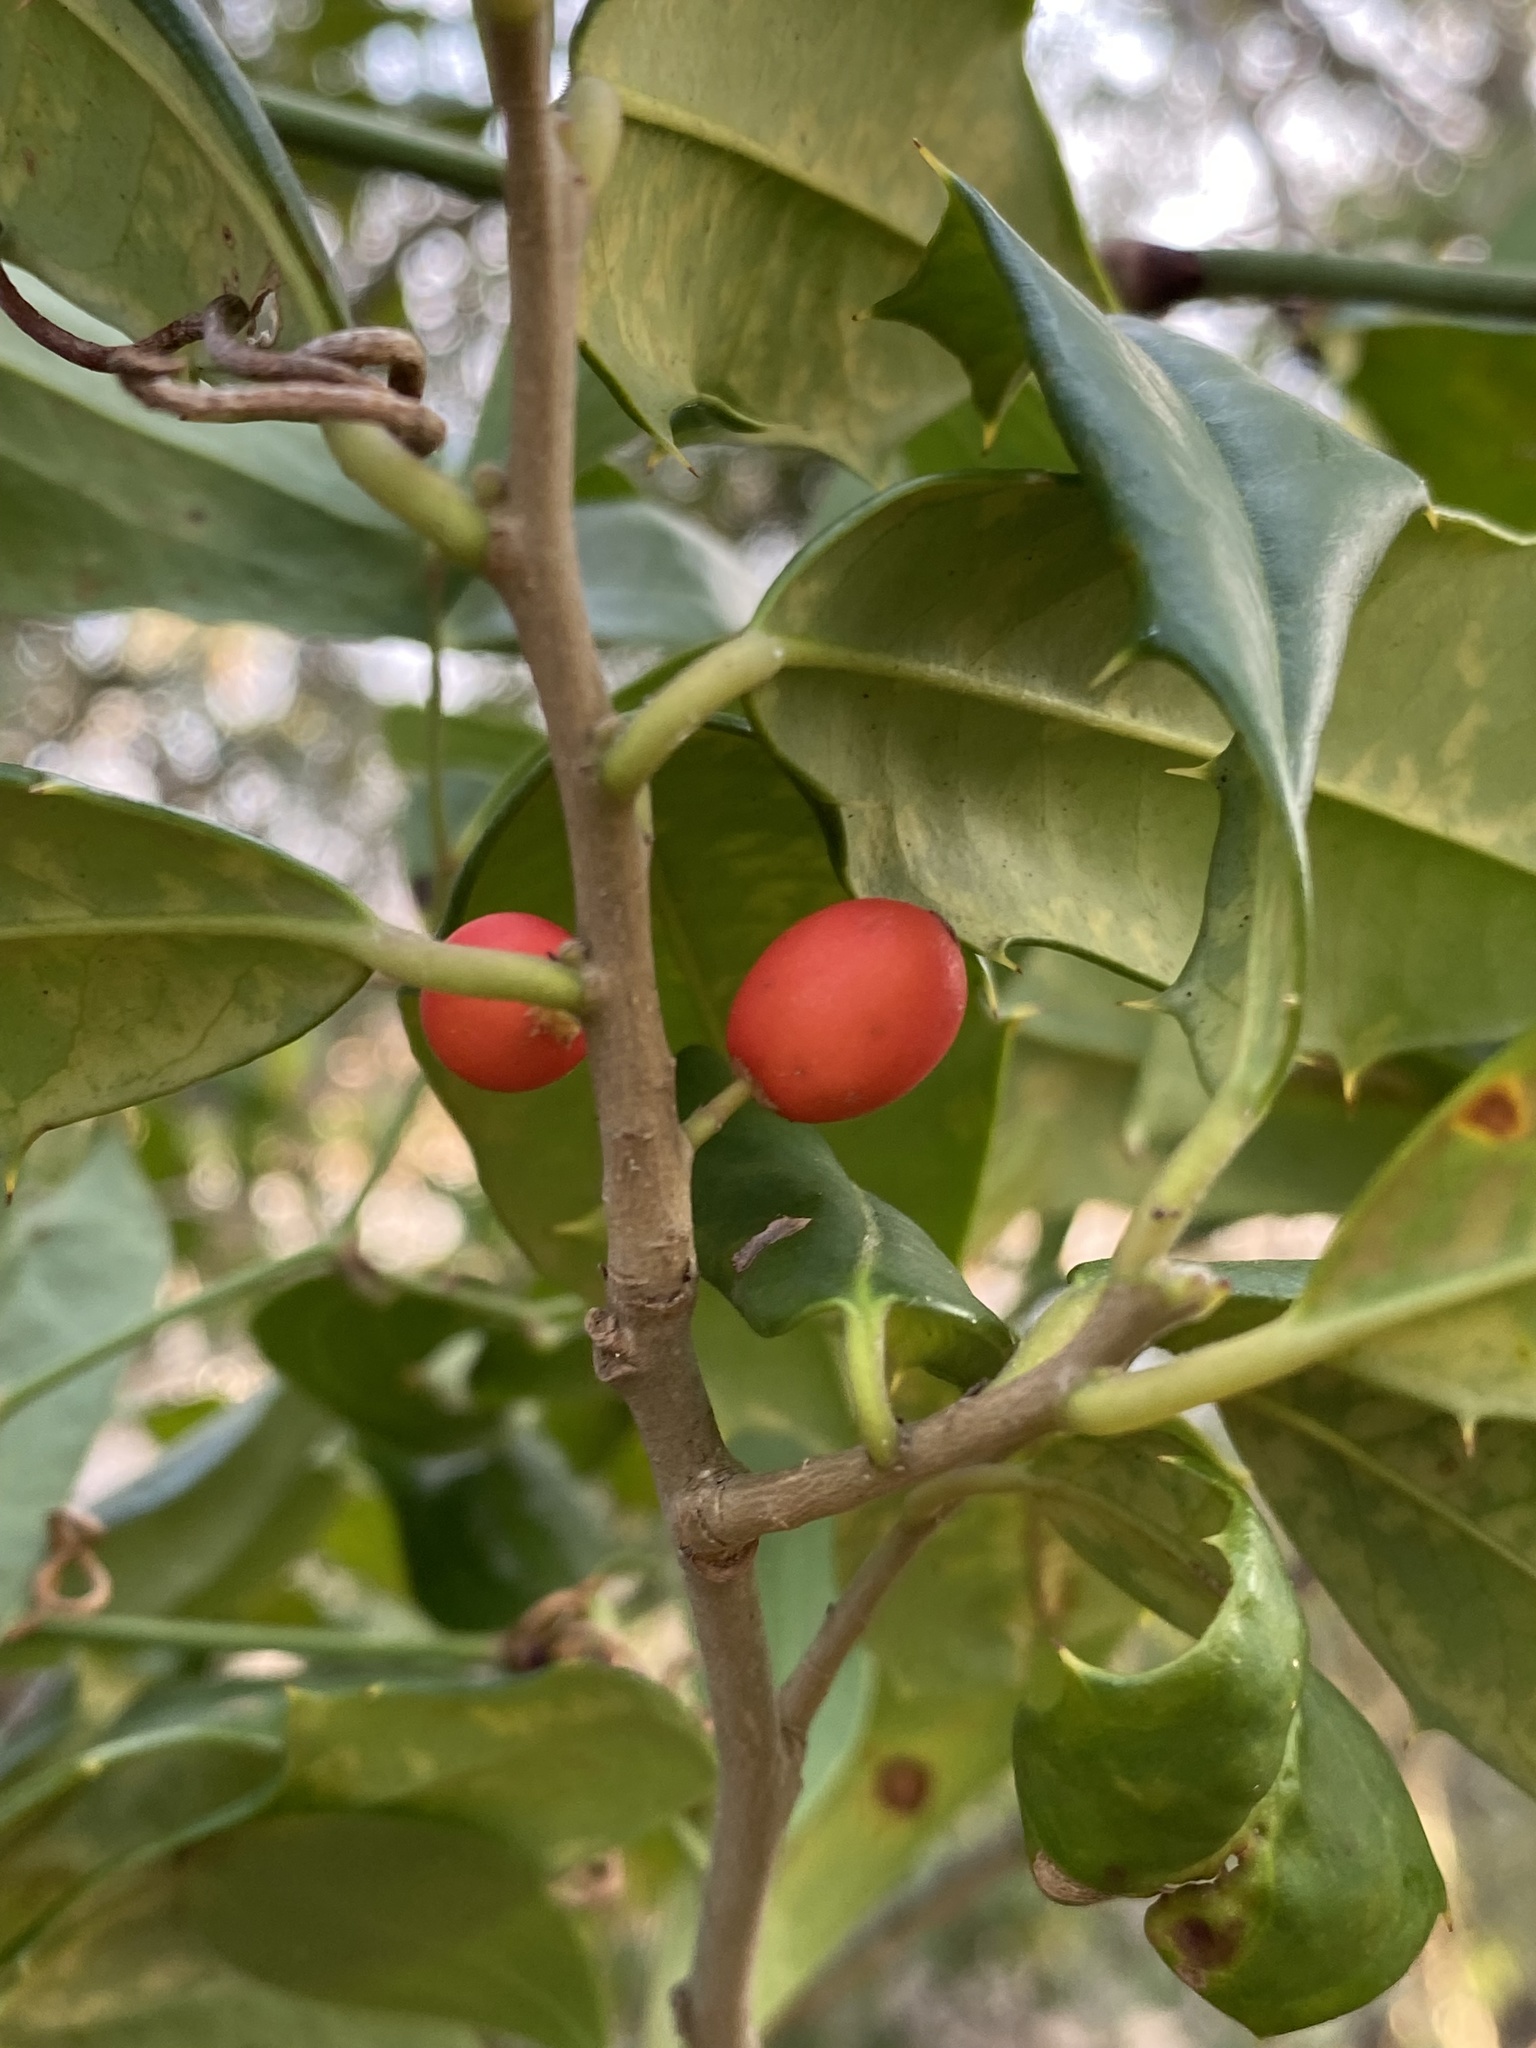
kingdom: Plantae
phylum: Tracheophyta
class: Magnoliopsida
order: Aquifoliales
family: Aquifoliaceae
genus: Ilex
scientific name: Ilex opaca
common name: American holly
